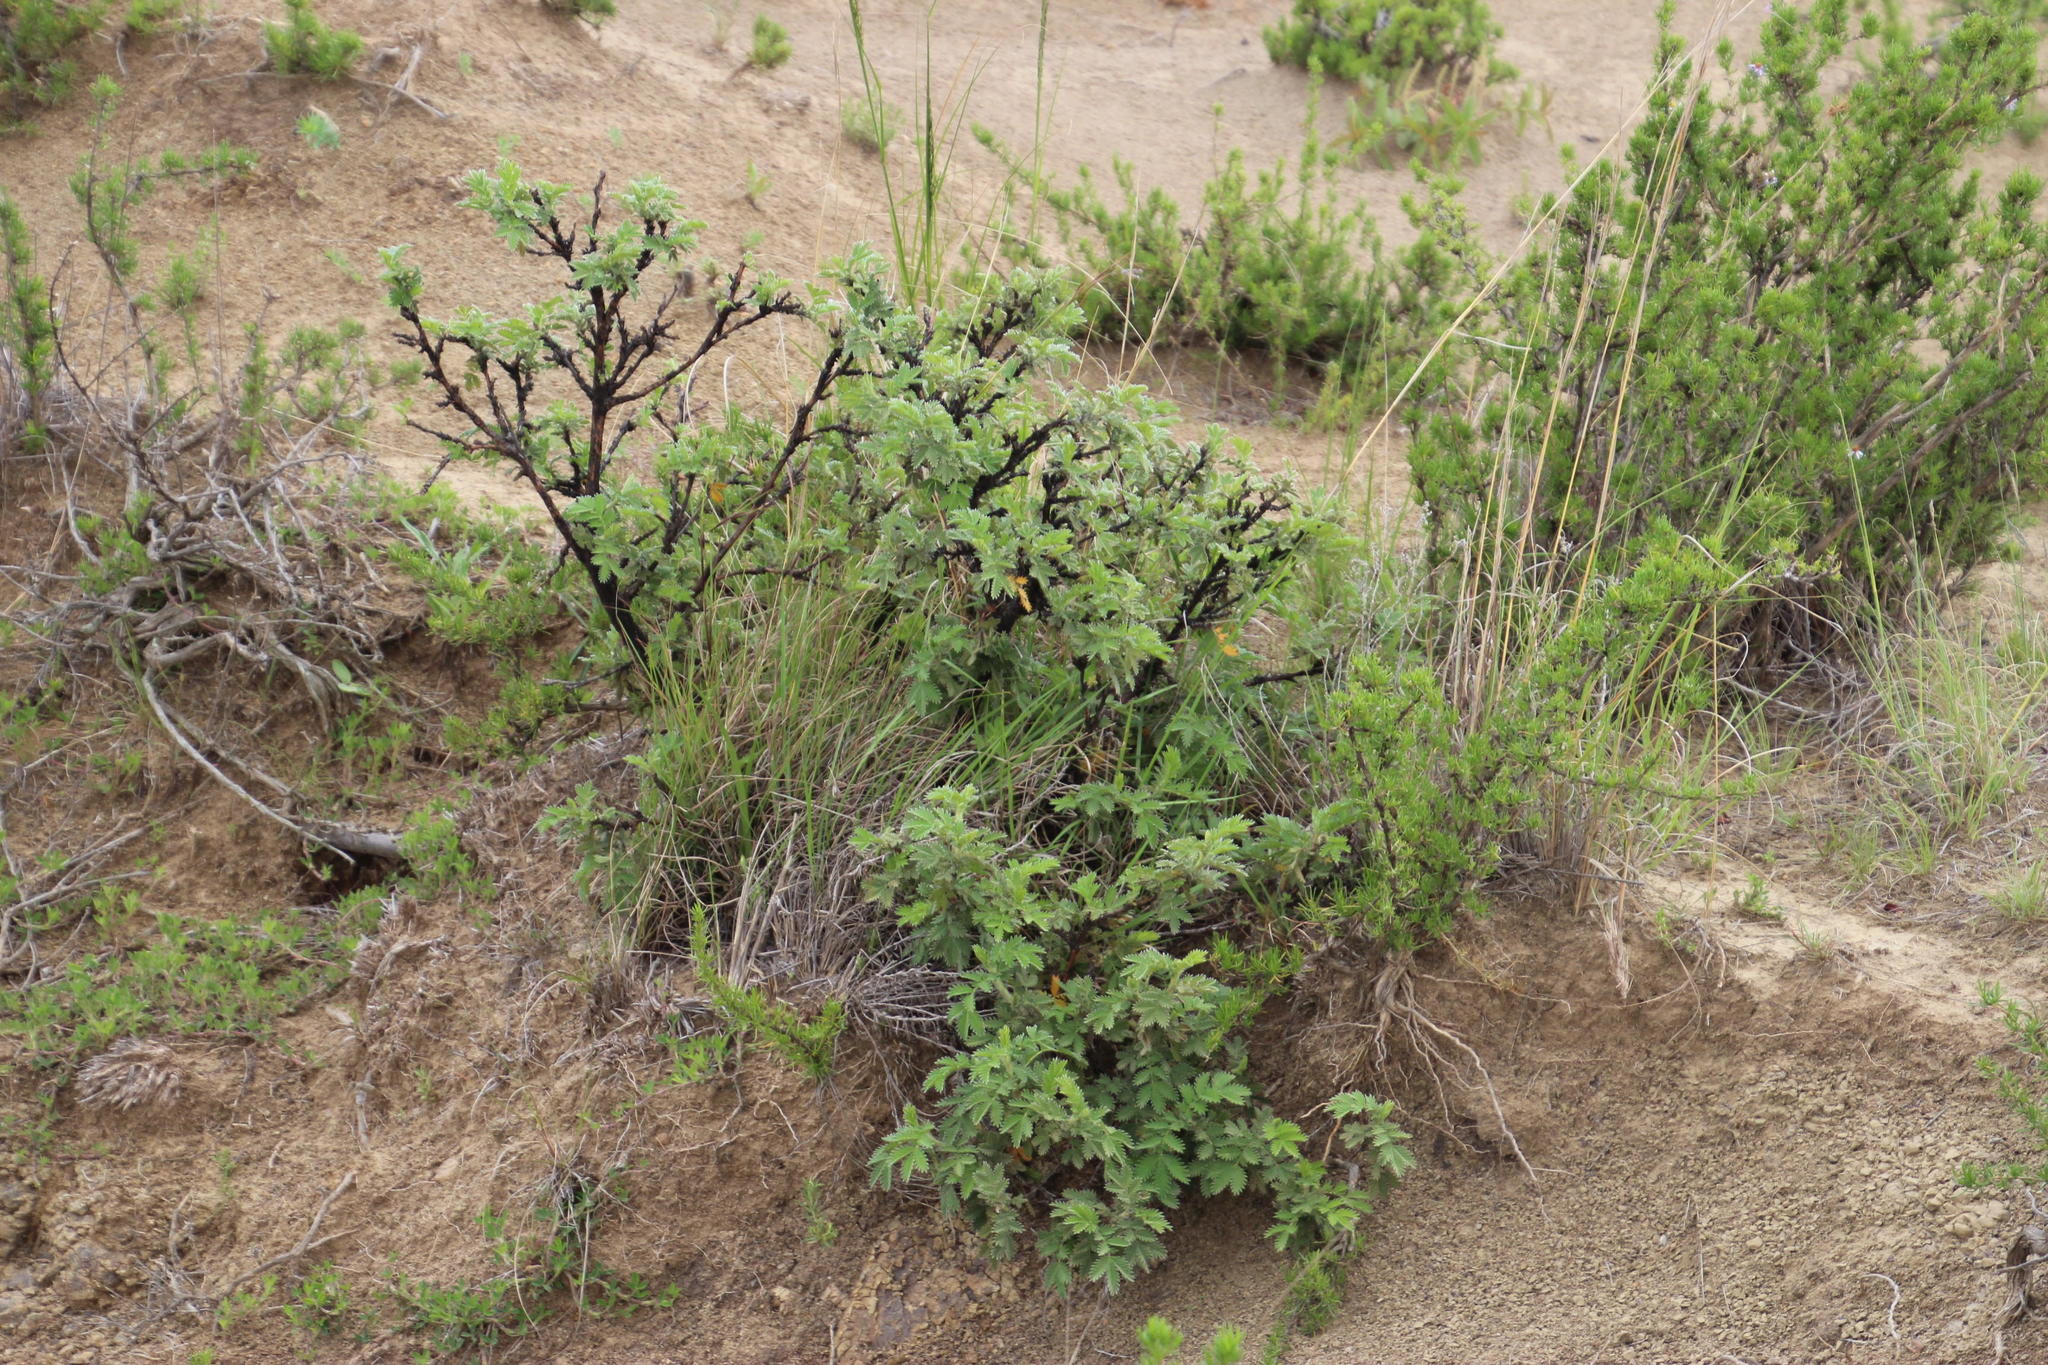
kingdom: Plantae
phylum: Tracheophyta
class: Magnoliopsida
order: Rosales
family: Rosaceae
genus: Leucosidea
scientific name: Leucosidea sericea
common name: Oldwood
